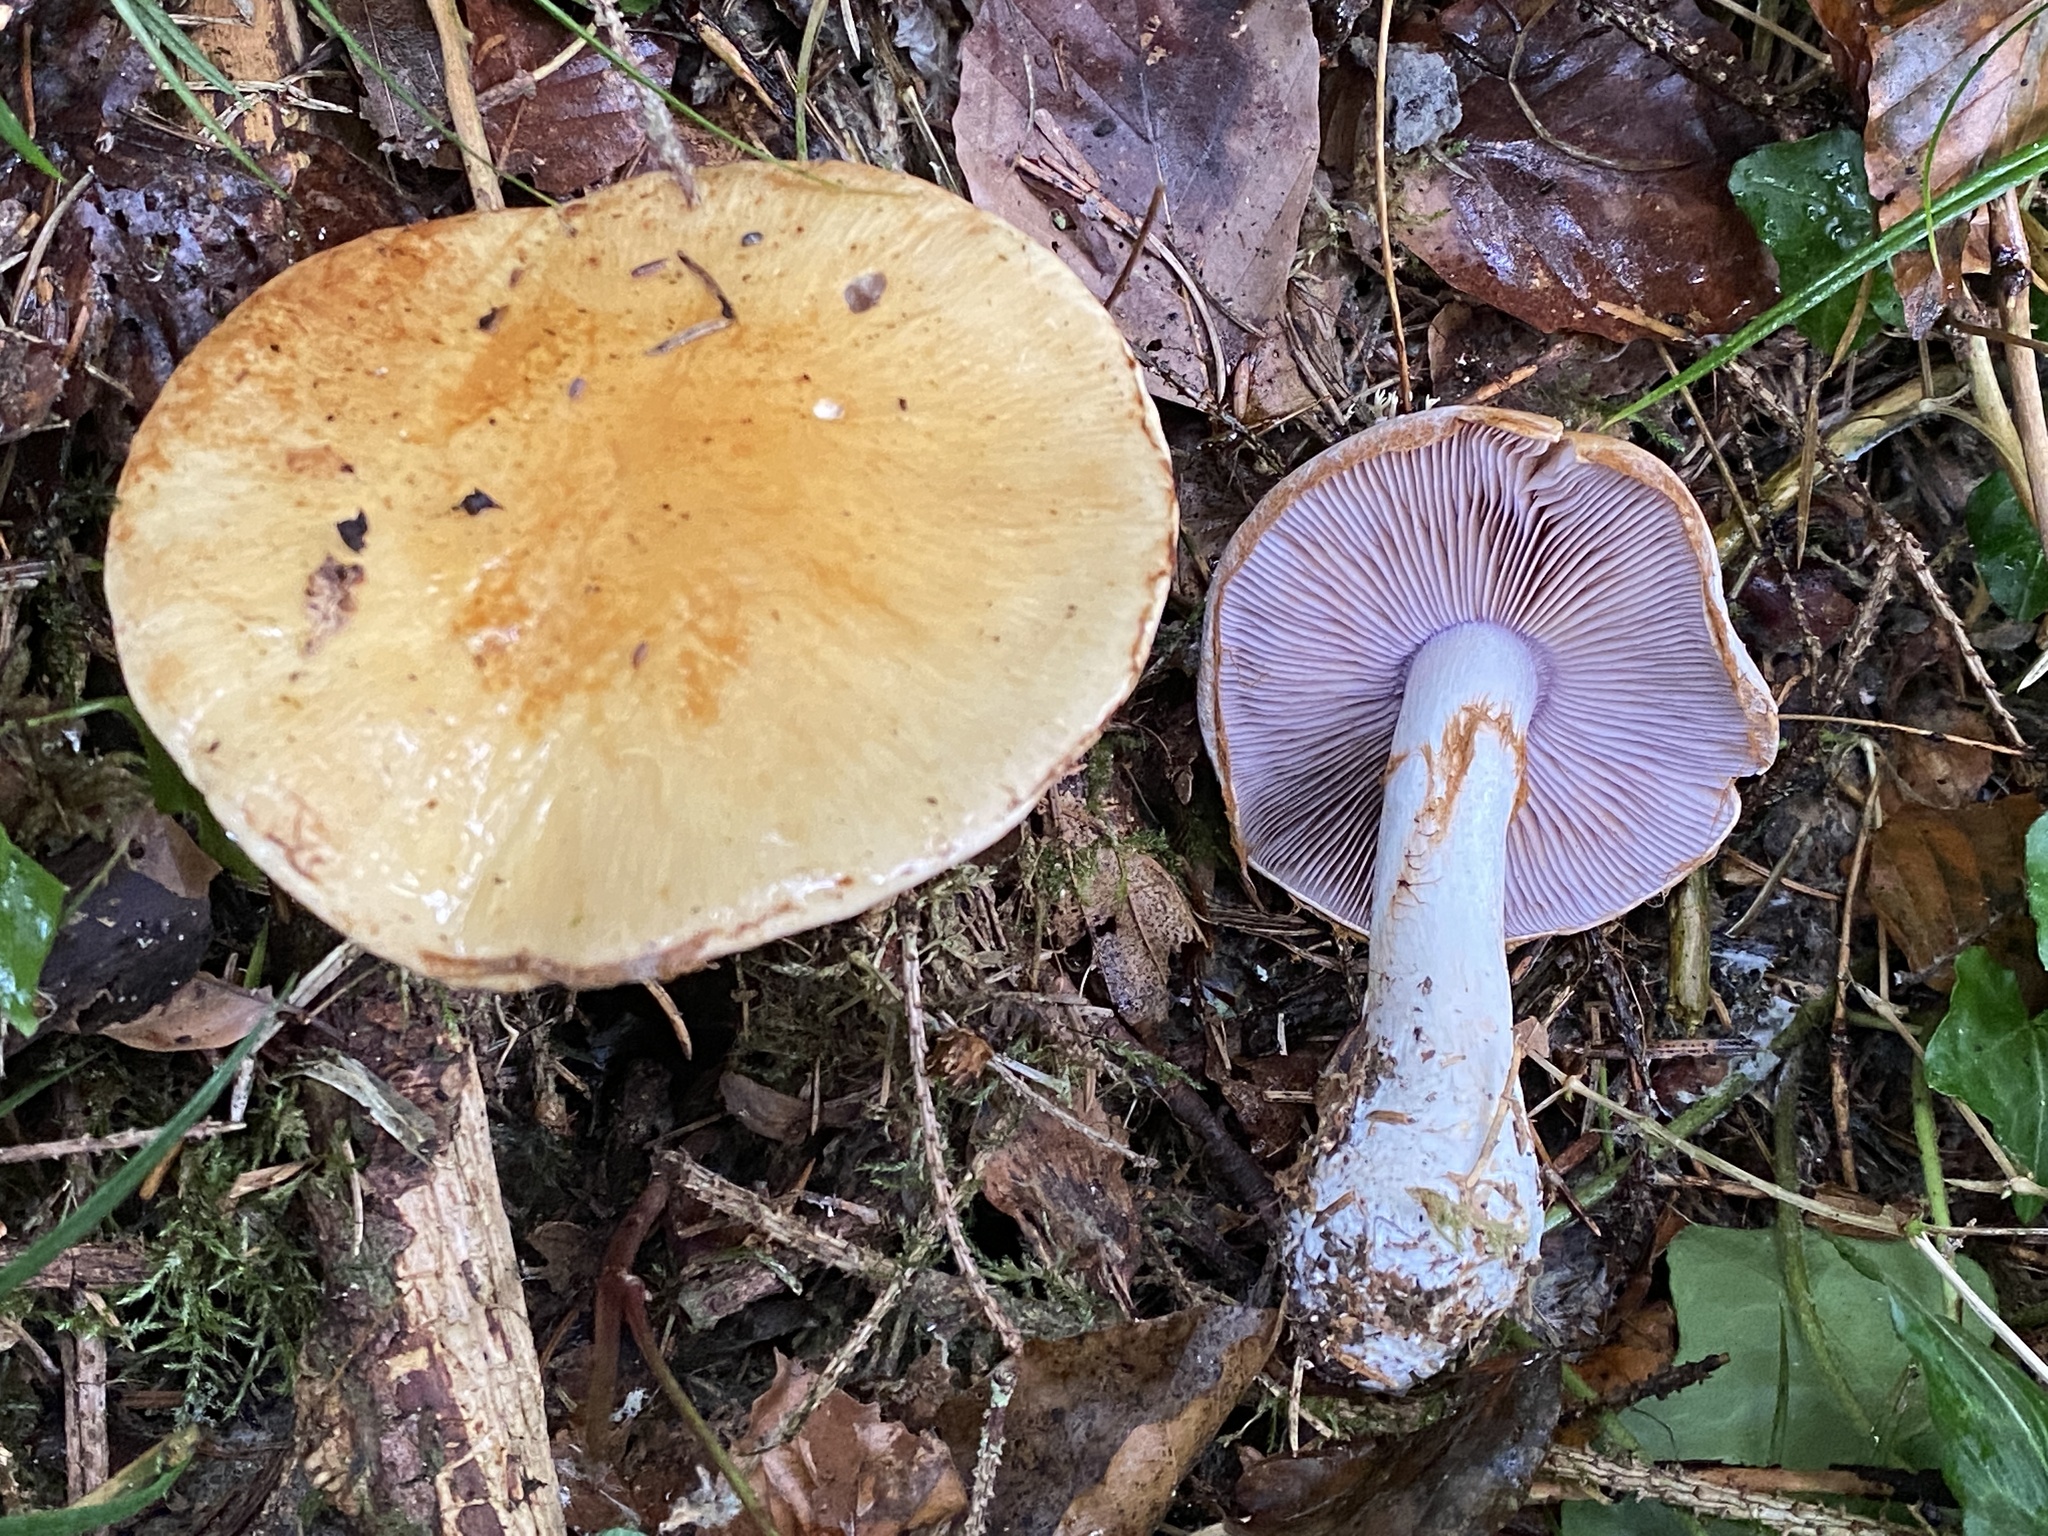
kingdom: Fungi
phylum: Basidiomycota
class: Agaricomycetes
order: Agaricales
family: Cortinariaceae
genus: Cortinarius
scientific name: Cortinarius varius
